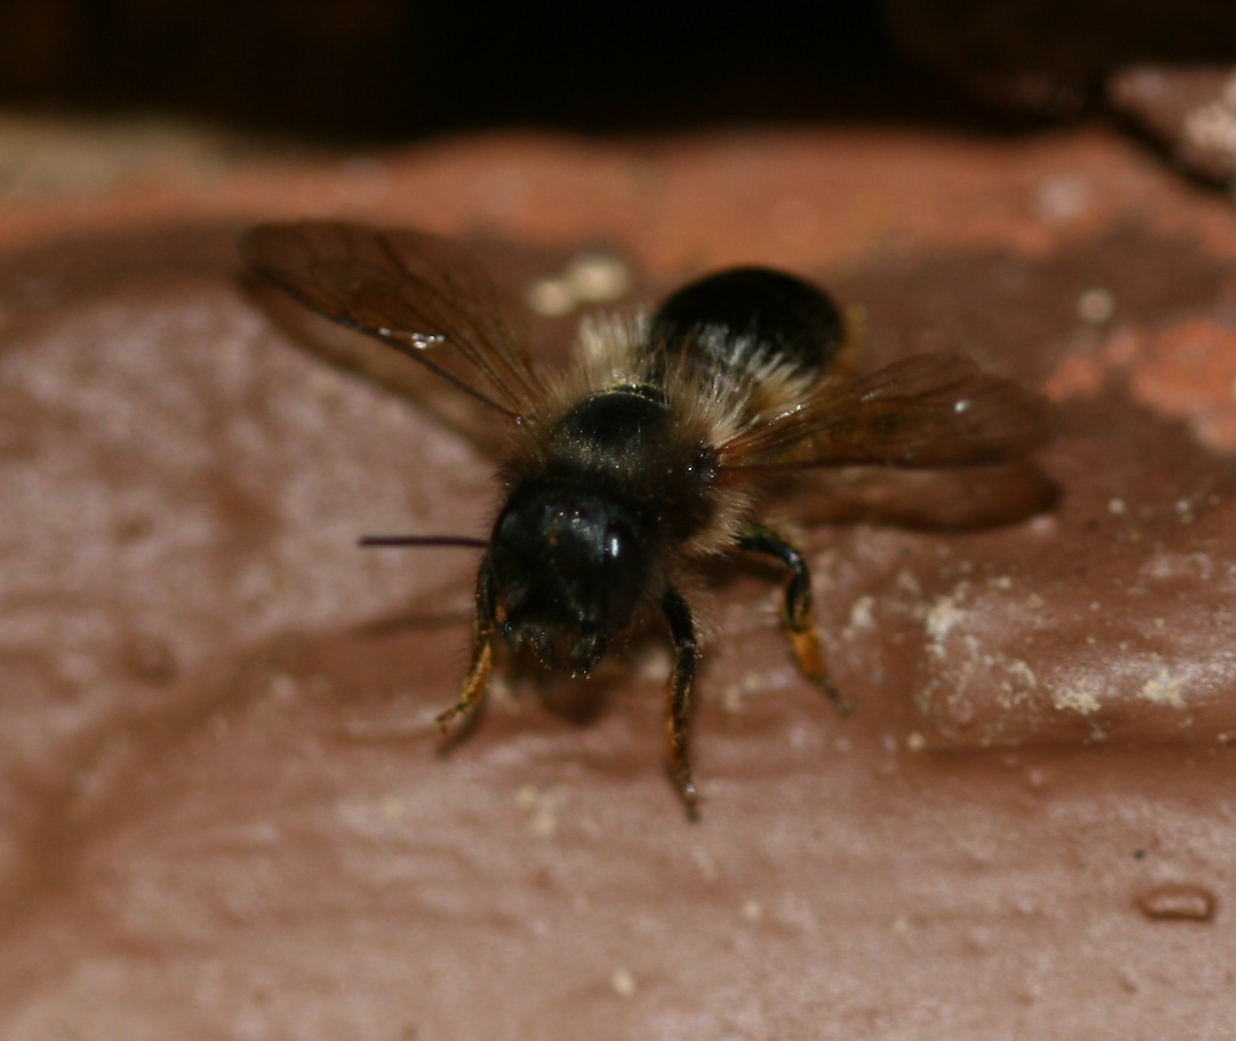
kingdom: Animalia
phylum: Arthropoda
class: Insecta
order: Hymenoptera
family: Megachilidae
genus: Osmia
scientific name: Osmia bicornis
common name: Red mason bee
